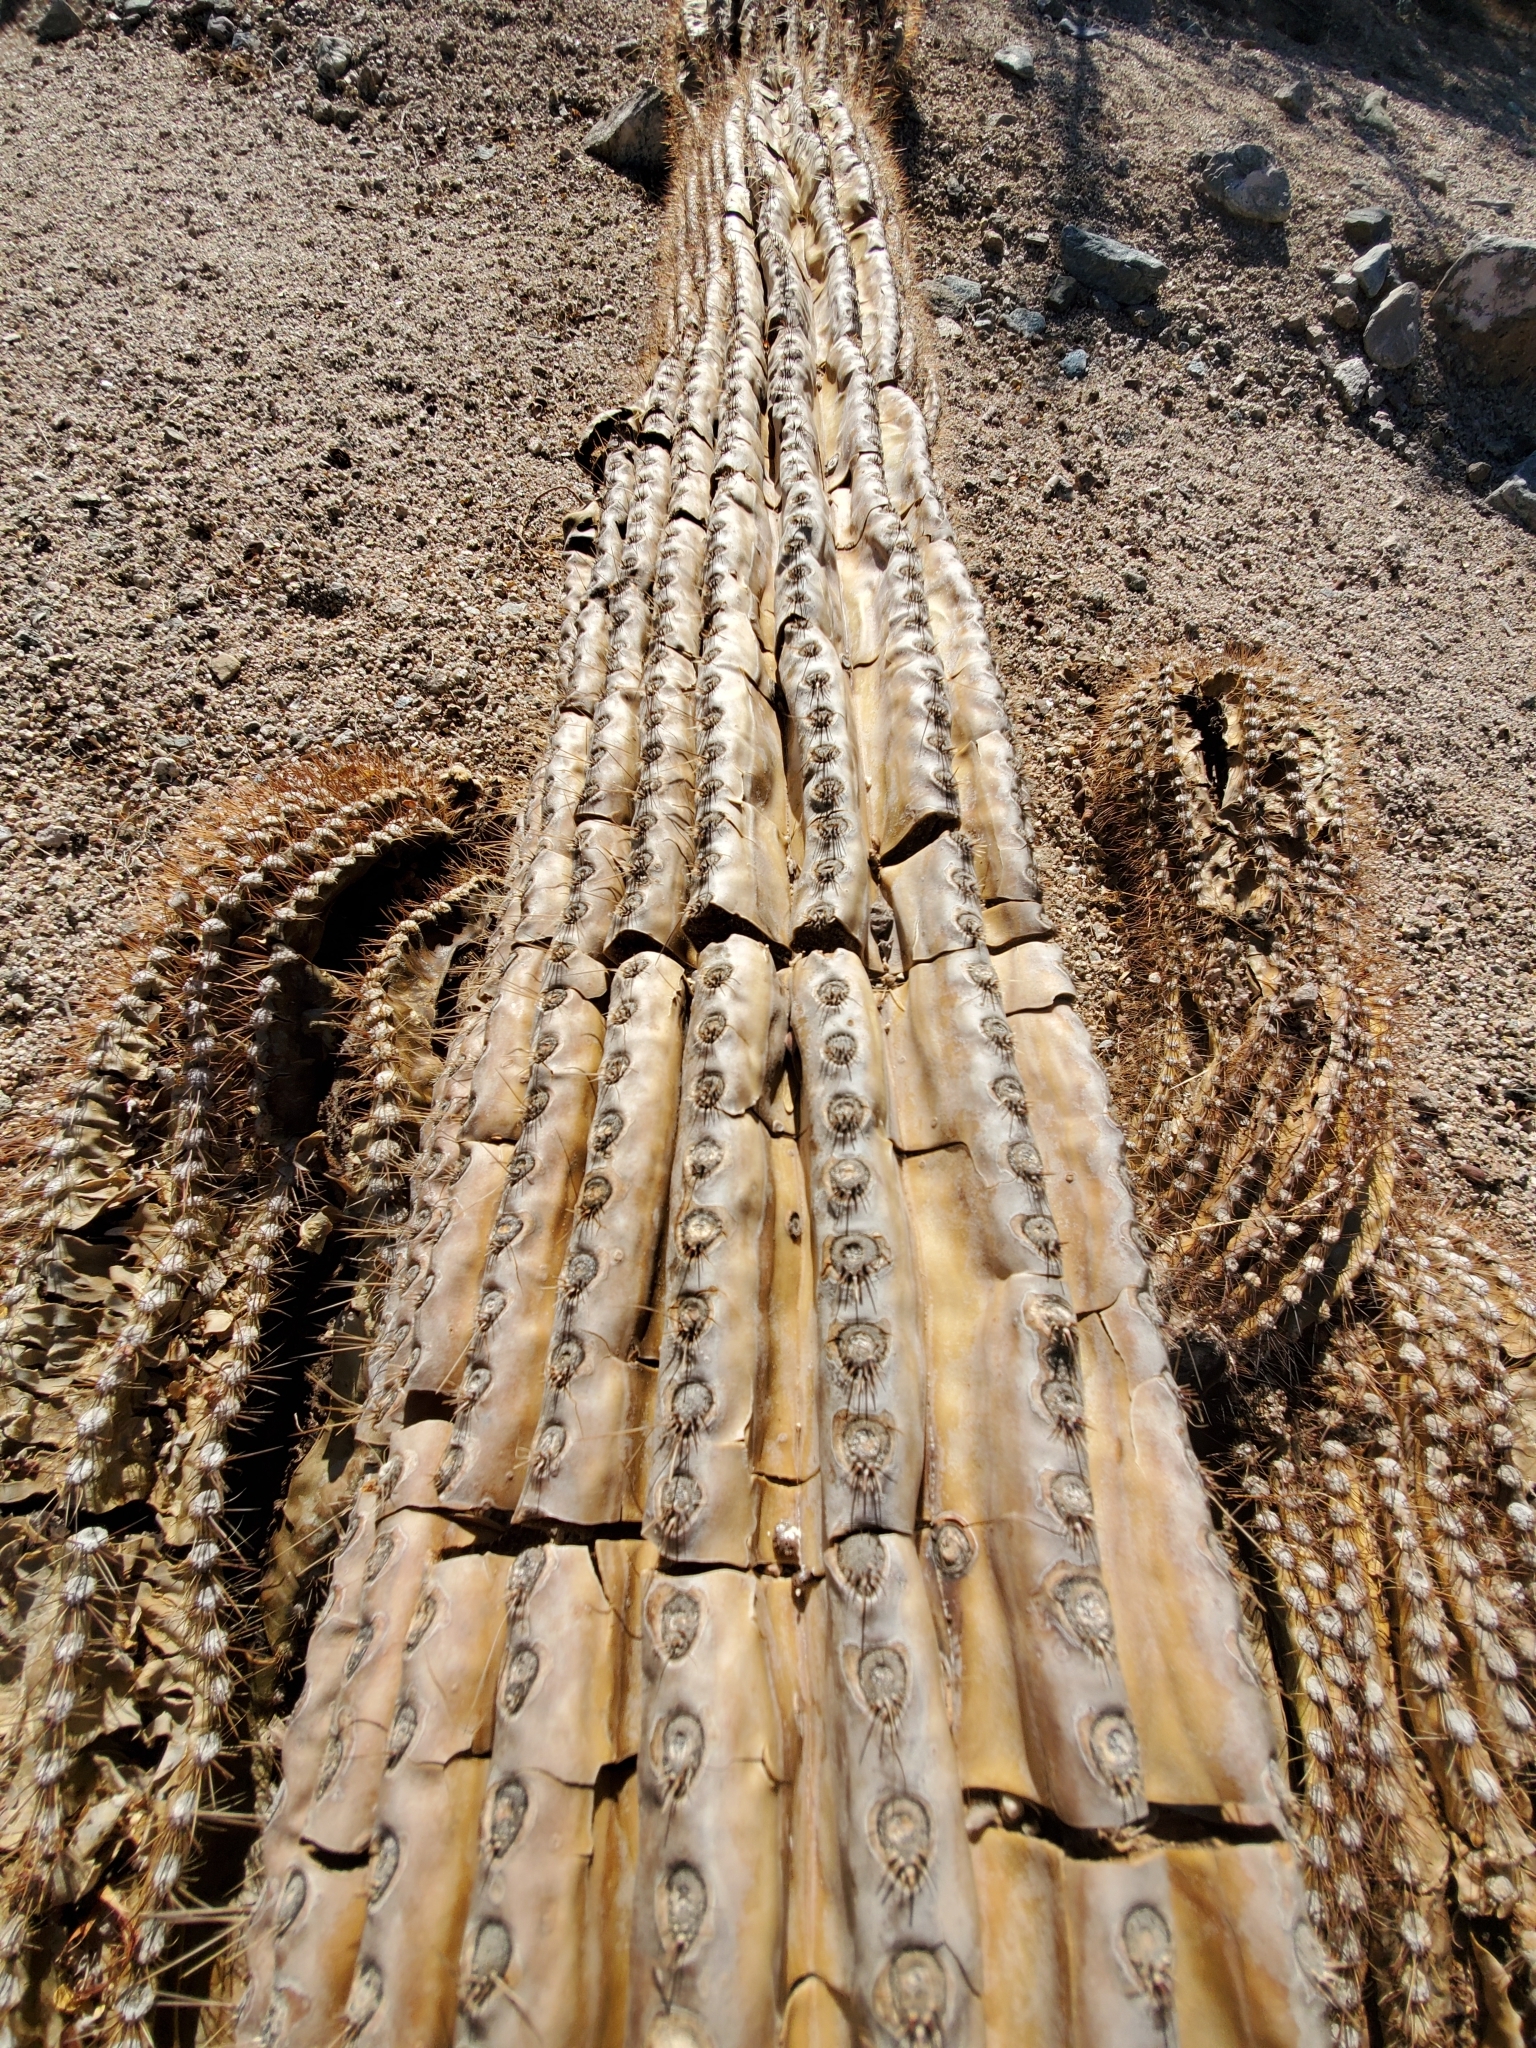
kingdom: Plantae
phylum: Tracheophyta
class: Magnoliopsida
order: Caryophyllales
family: Cactaceae
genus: Carnegiea
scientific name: Carnegiea gigantea
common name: Saguaro
